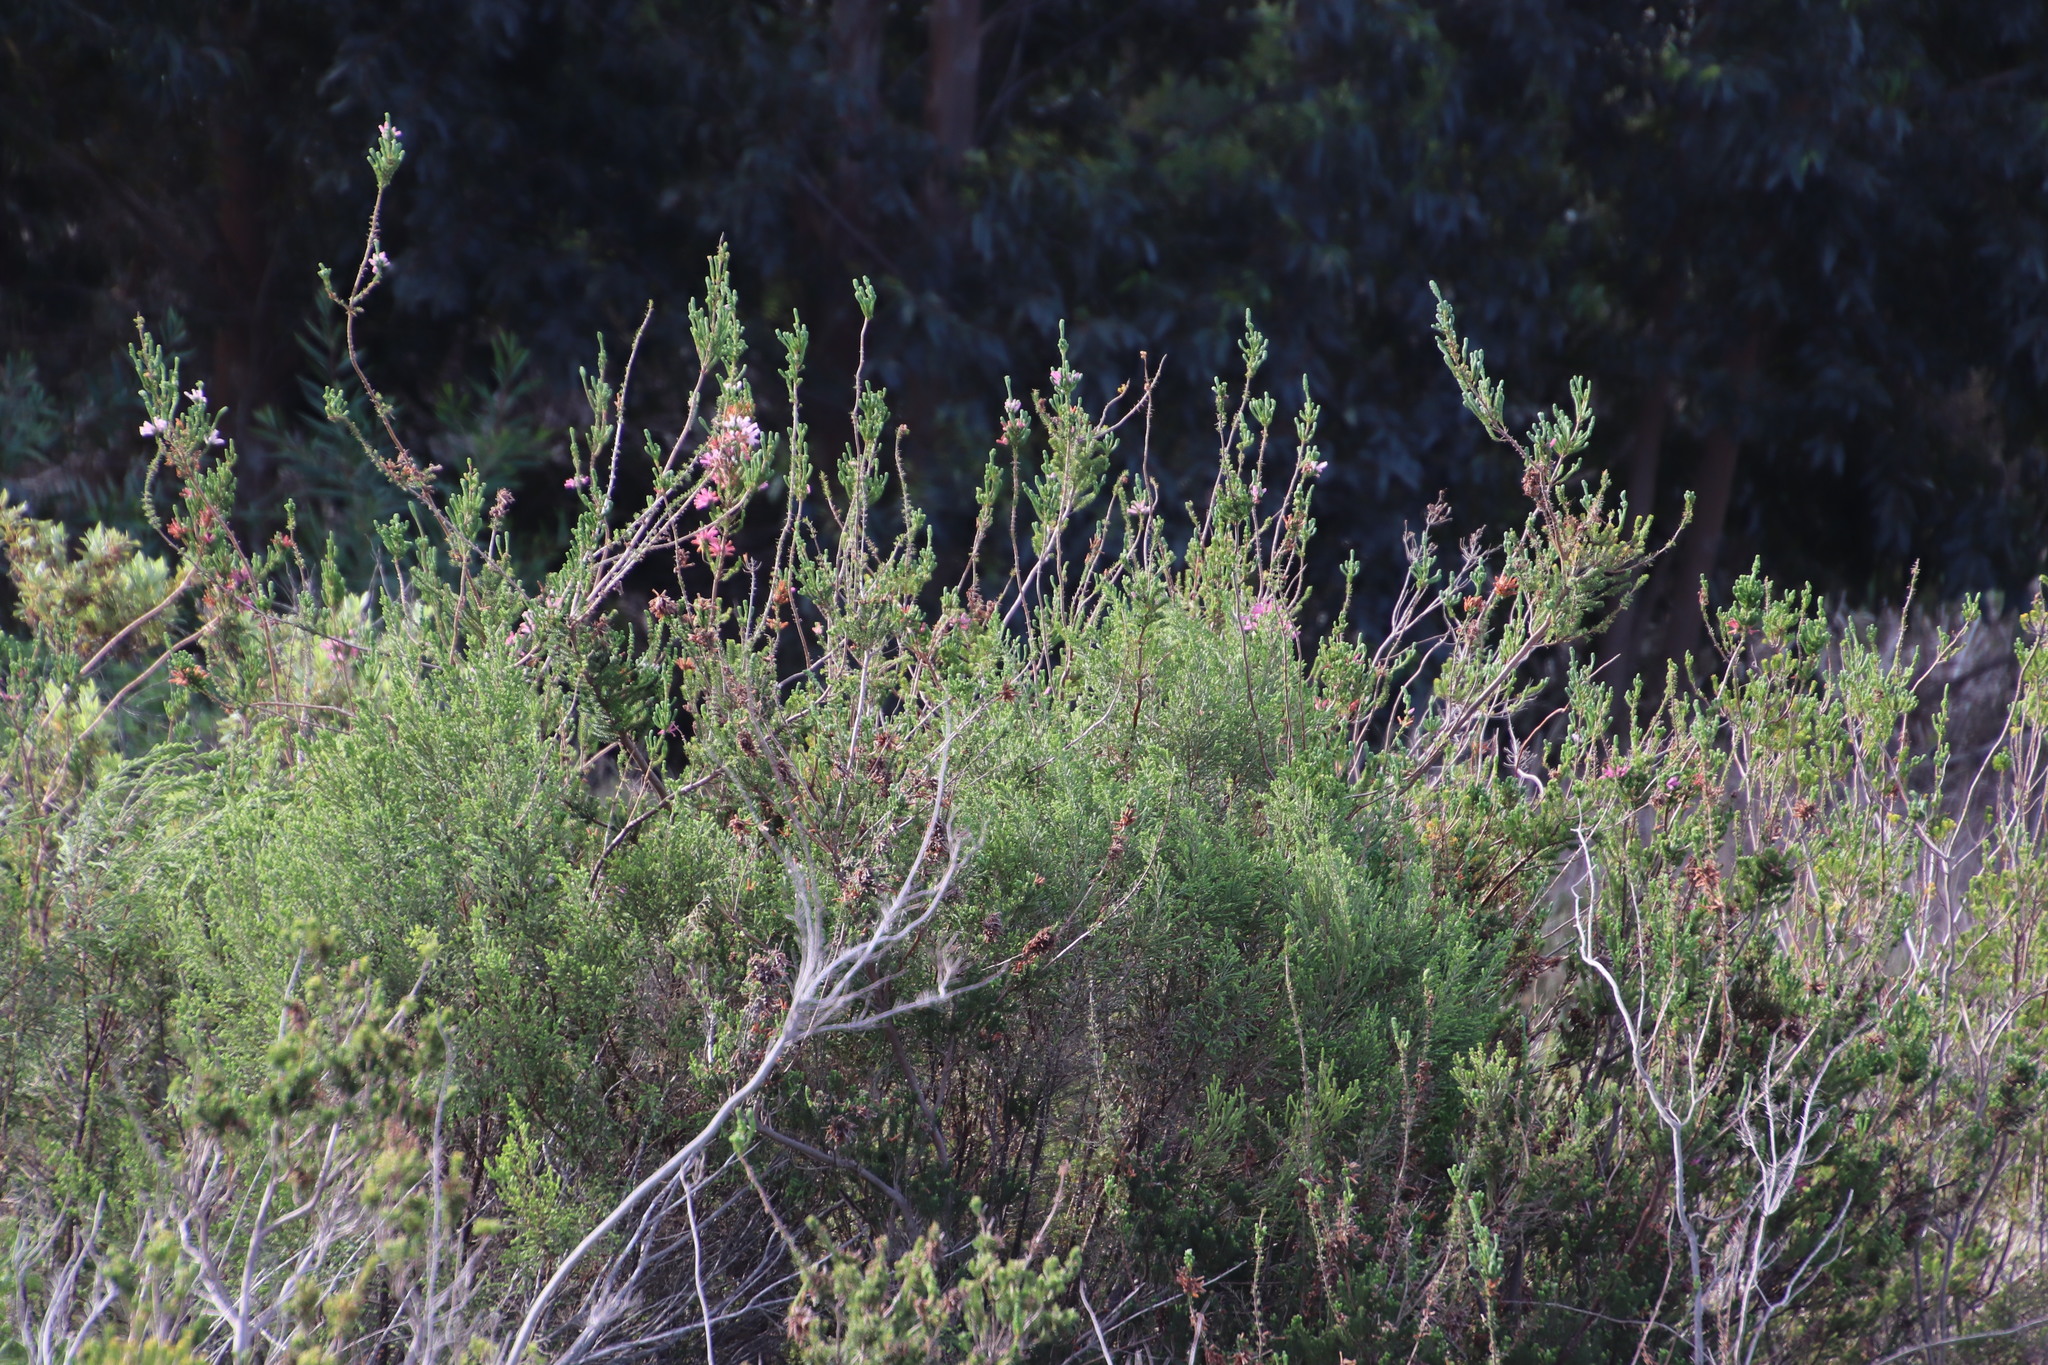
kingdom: Plantae
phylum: Tracheophyta
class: Magnoliopsida
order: Ericales
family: Ericaceae
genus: Erica
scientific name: Erica verticillata
